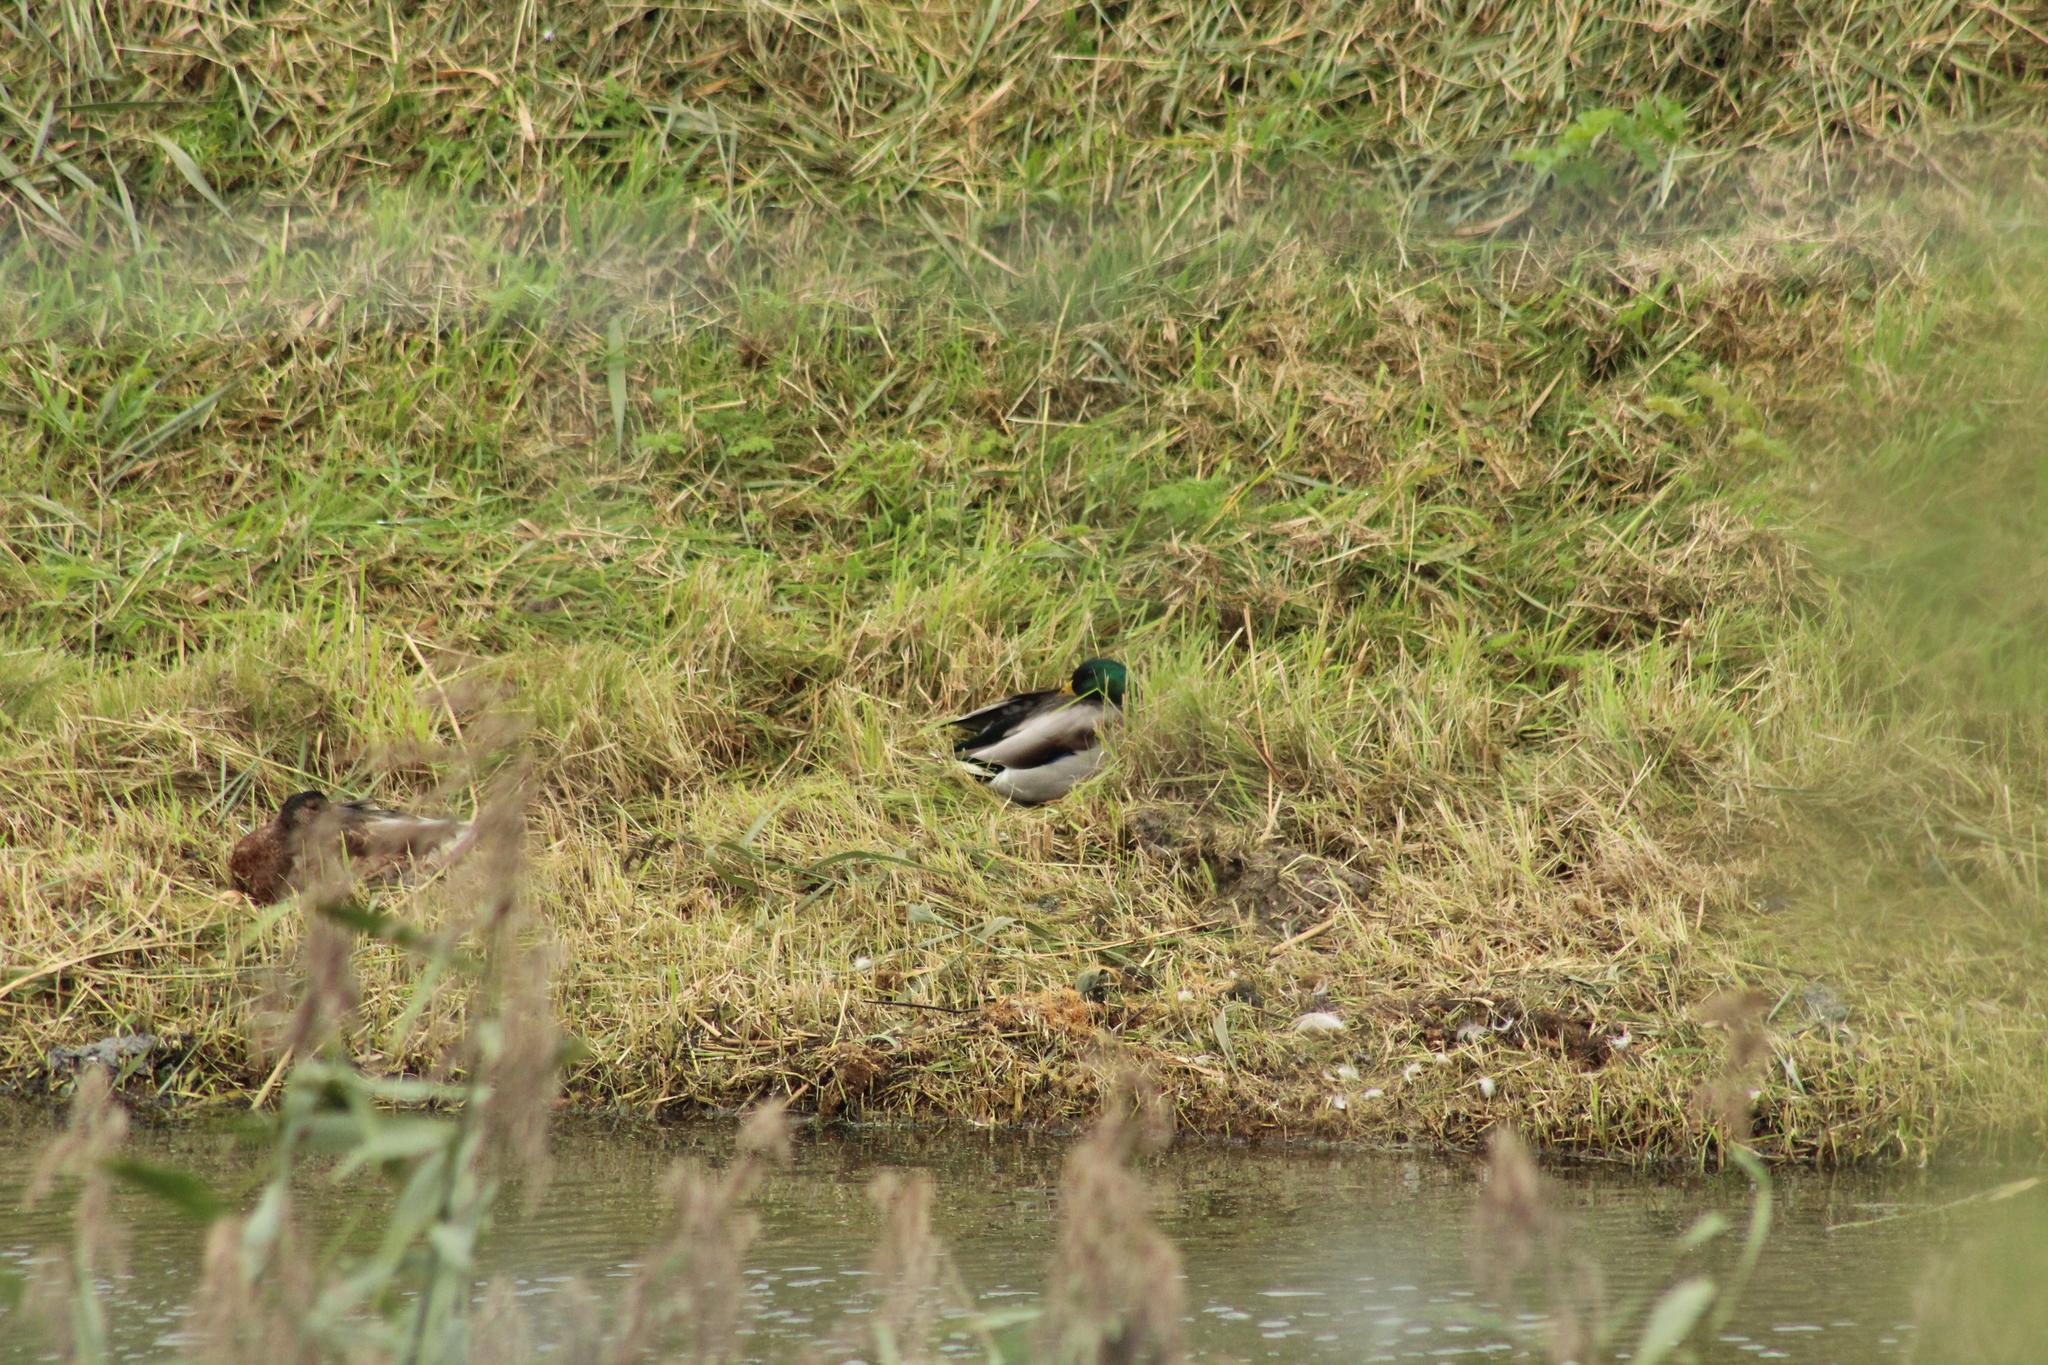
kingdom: Animalia
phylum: Chordata
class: Aves
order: Anseriformes
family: Anatidae
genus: Anas
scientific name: Anas platyrhynchos
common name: Mallard
